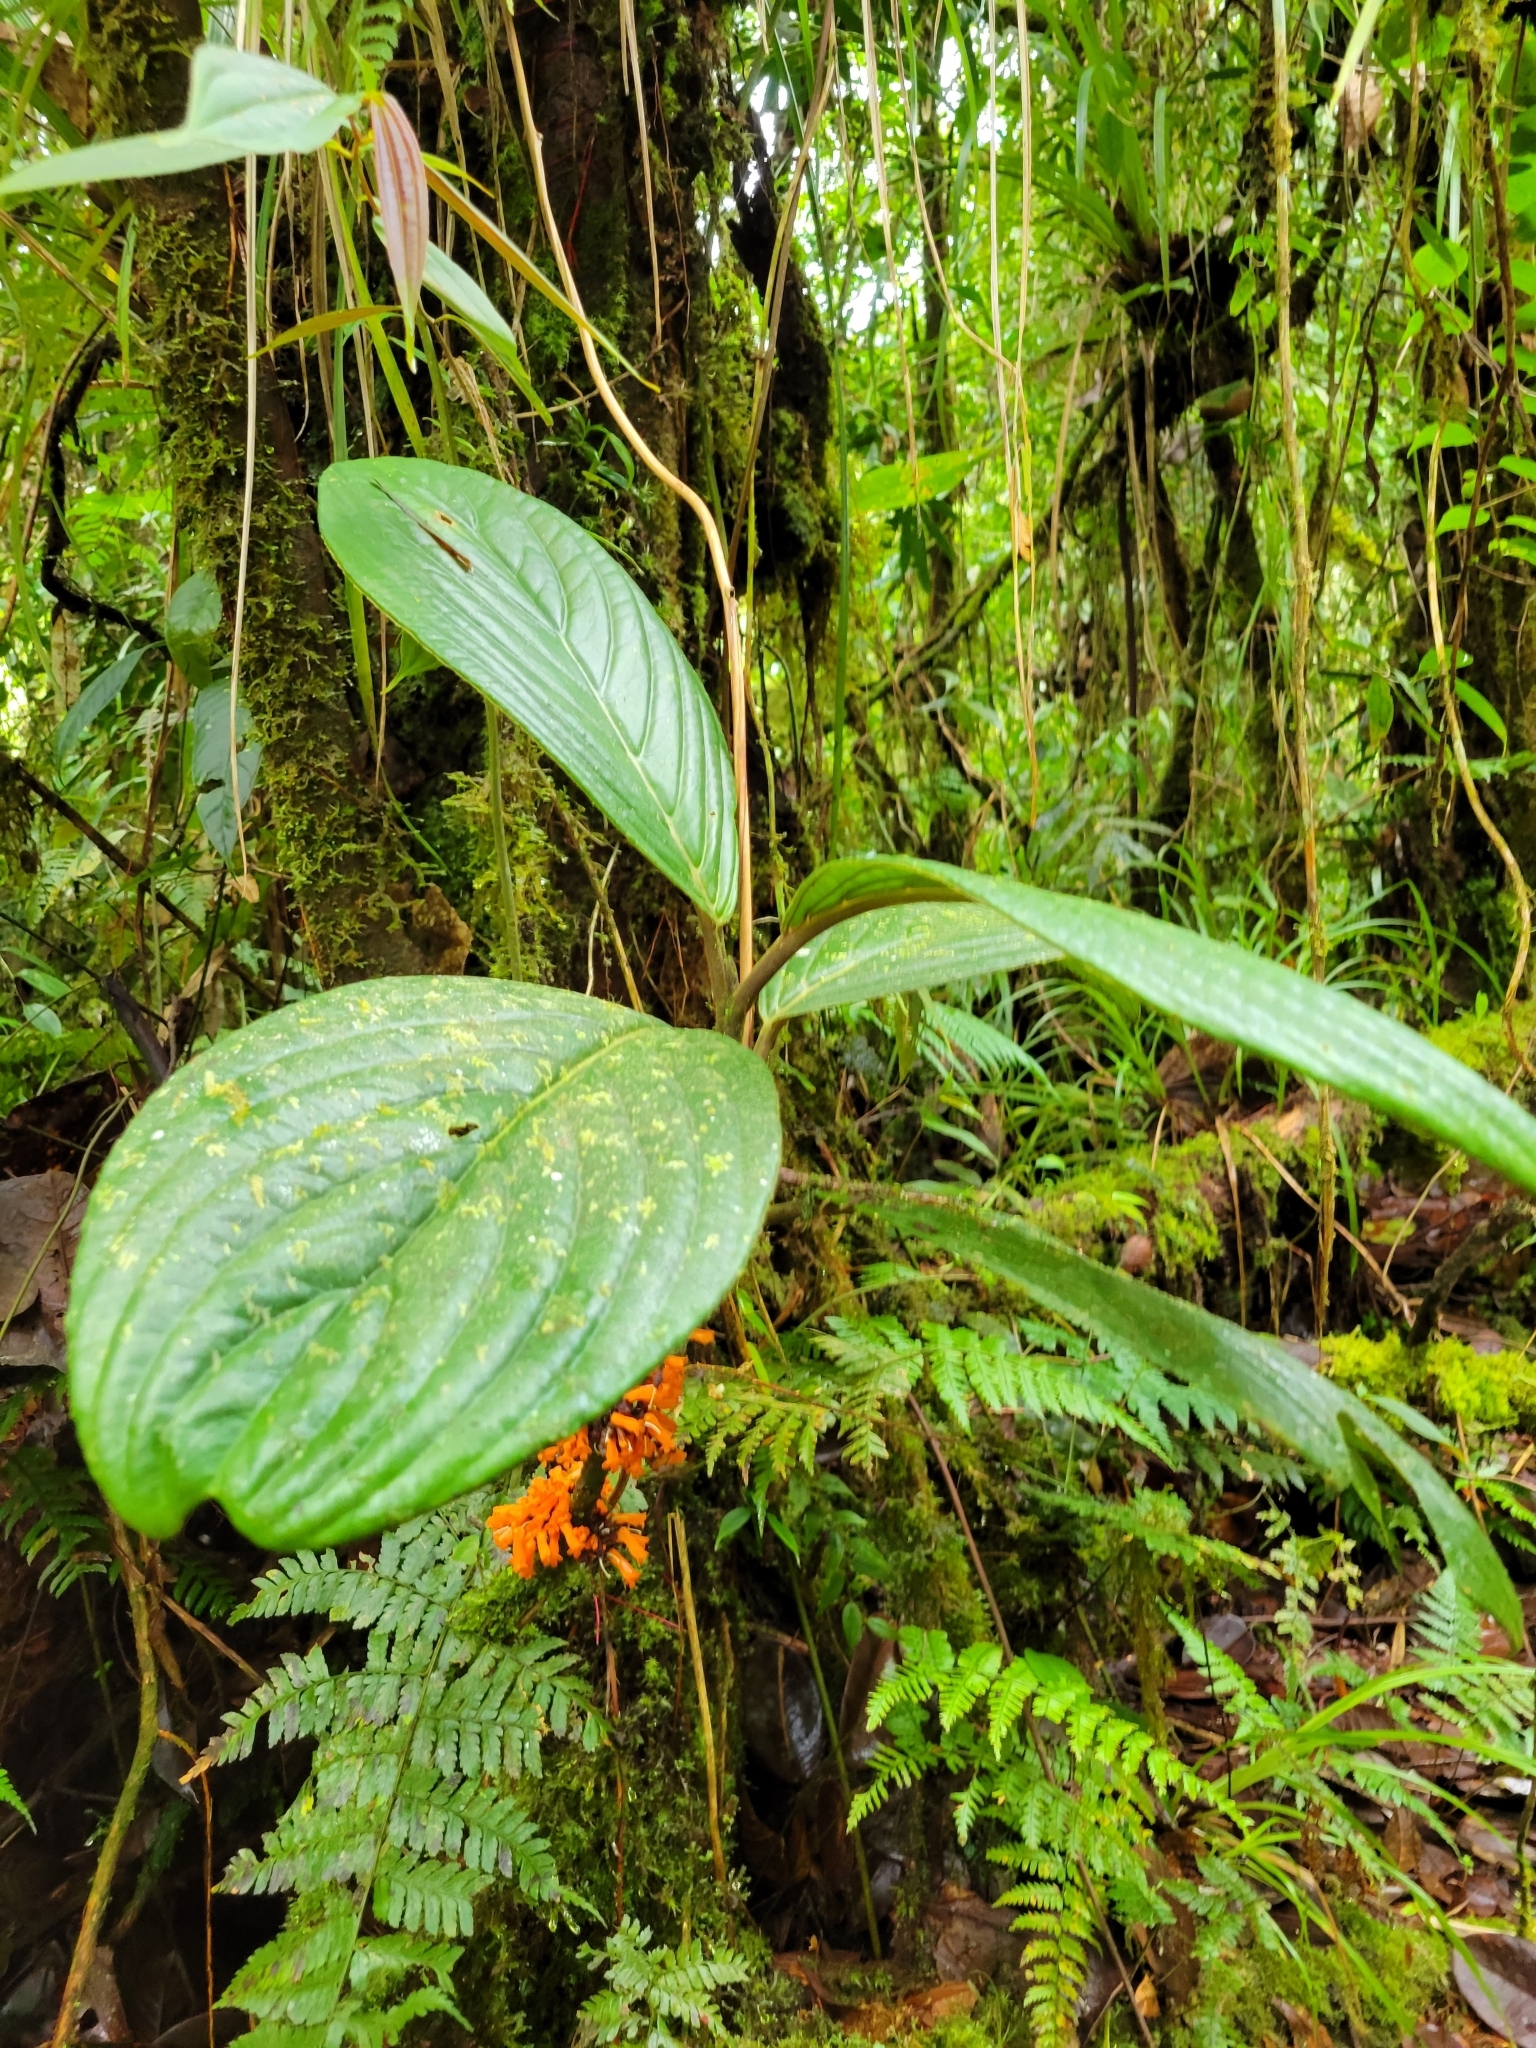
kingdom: Plantae
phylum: Tracheophyta
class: Magnoliopsida
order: Lamiales
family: Gesneriaceae
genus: Besleria
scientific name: Besleria notabilis
